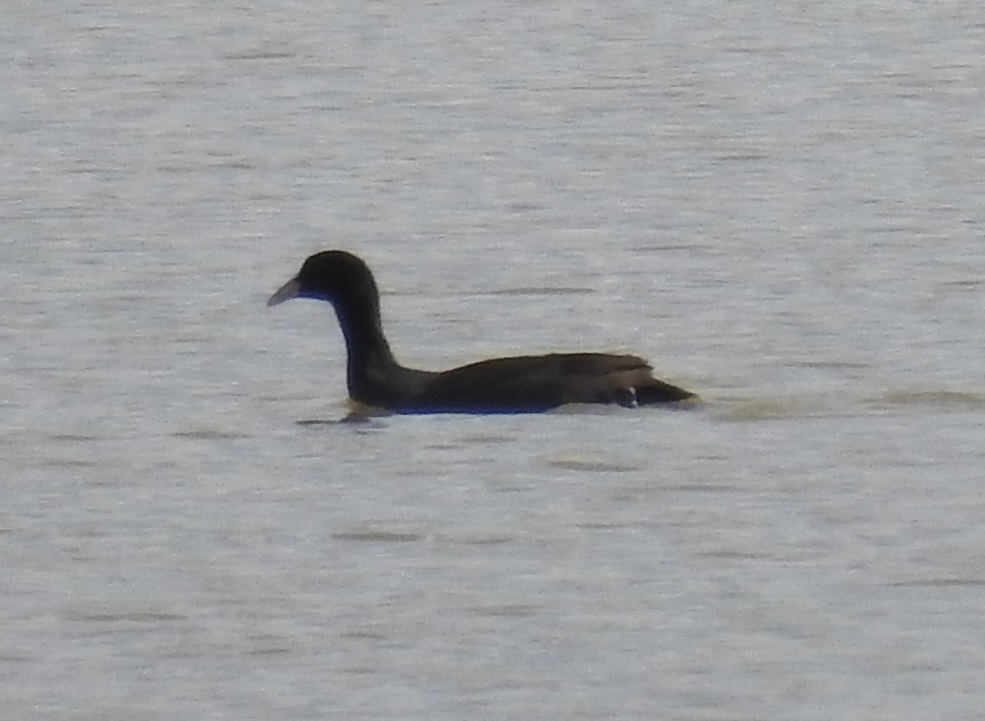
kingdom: Animalia
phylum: Chordata
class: Aves
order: Gruiformes
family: Rallidae
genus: Fulica
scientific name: Fulica atra
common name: Eurasian coot
